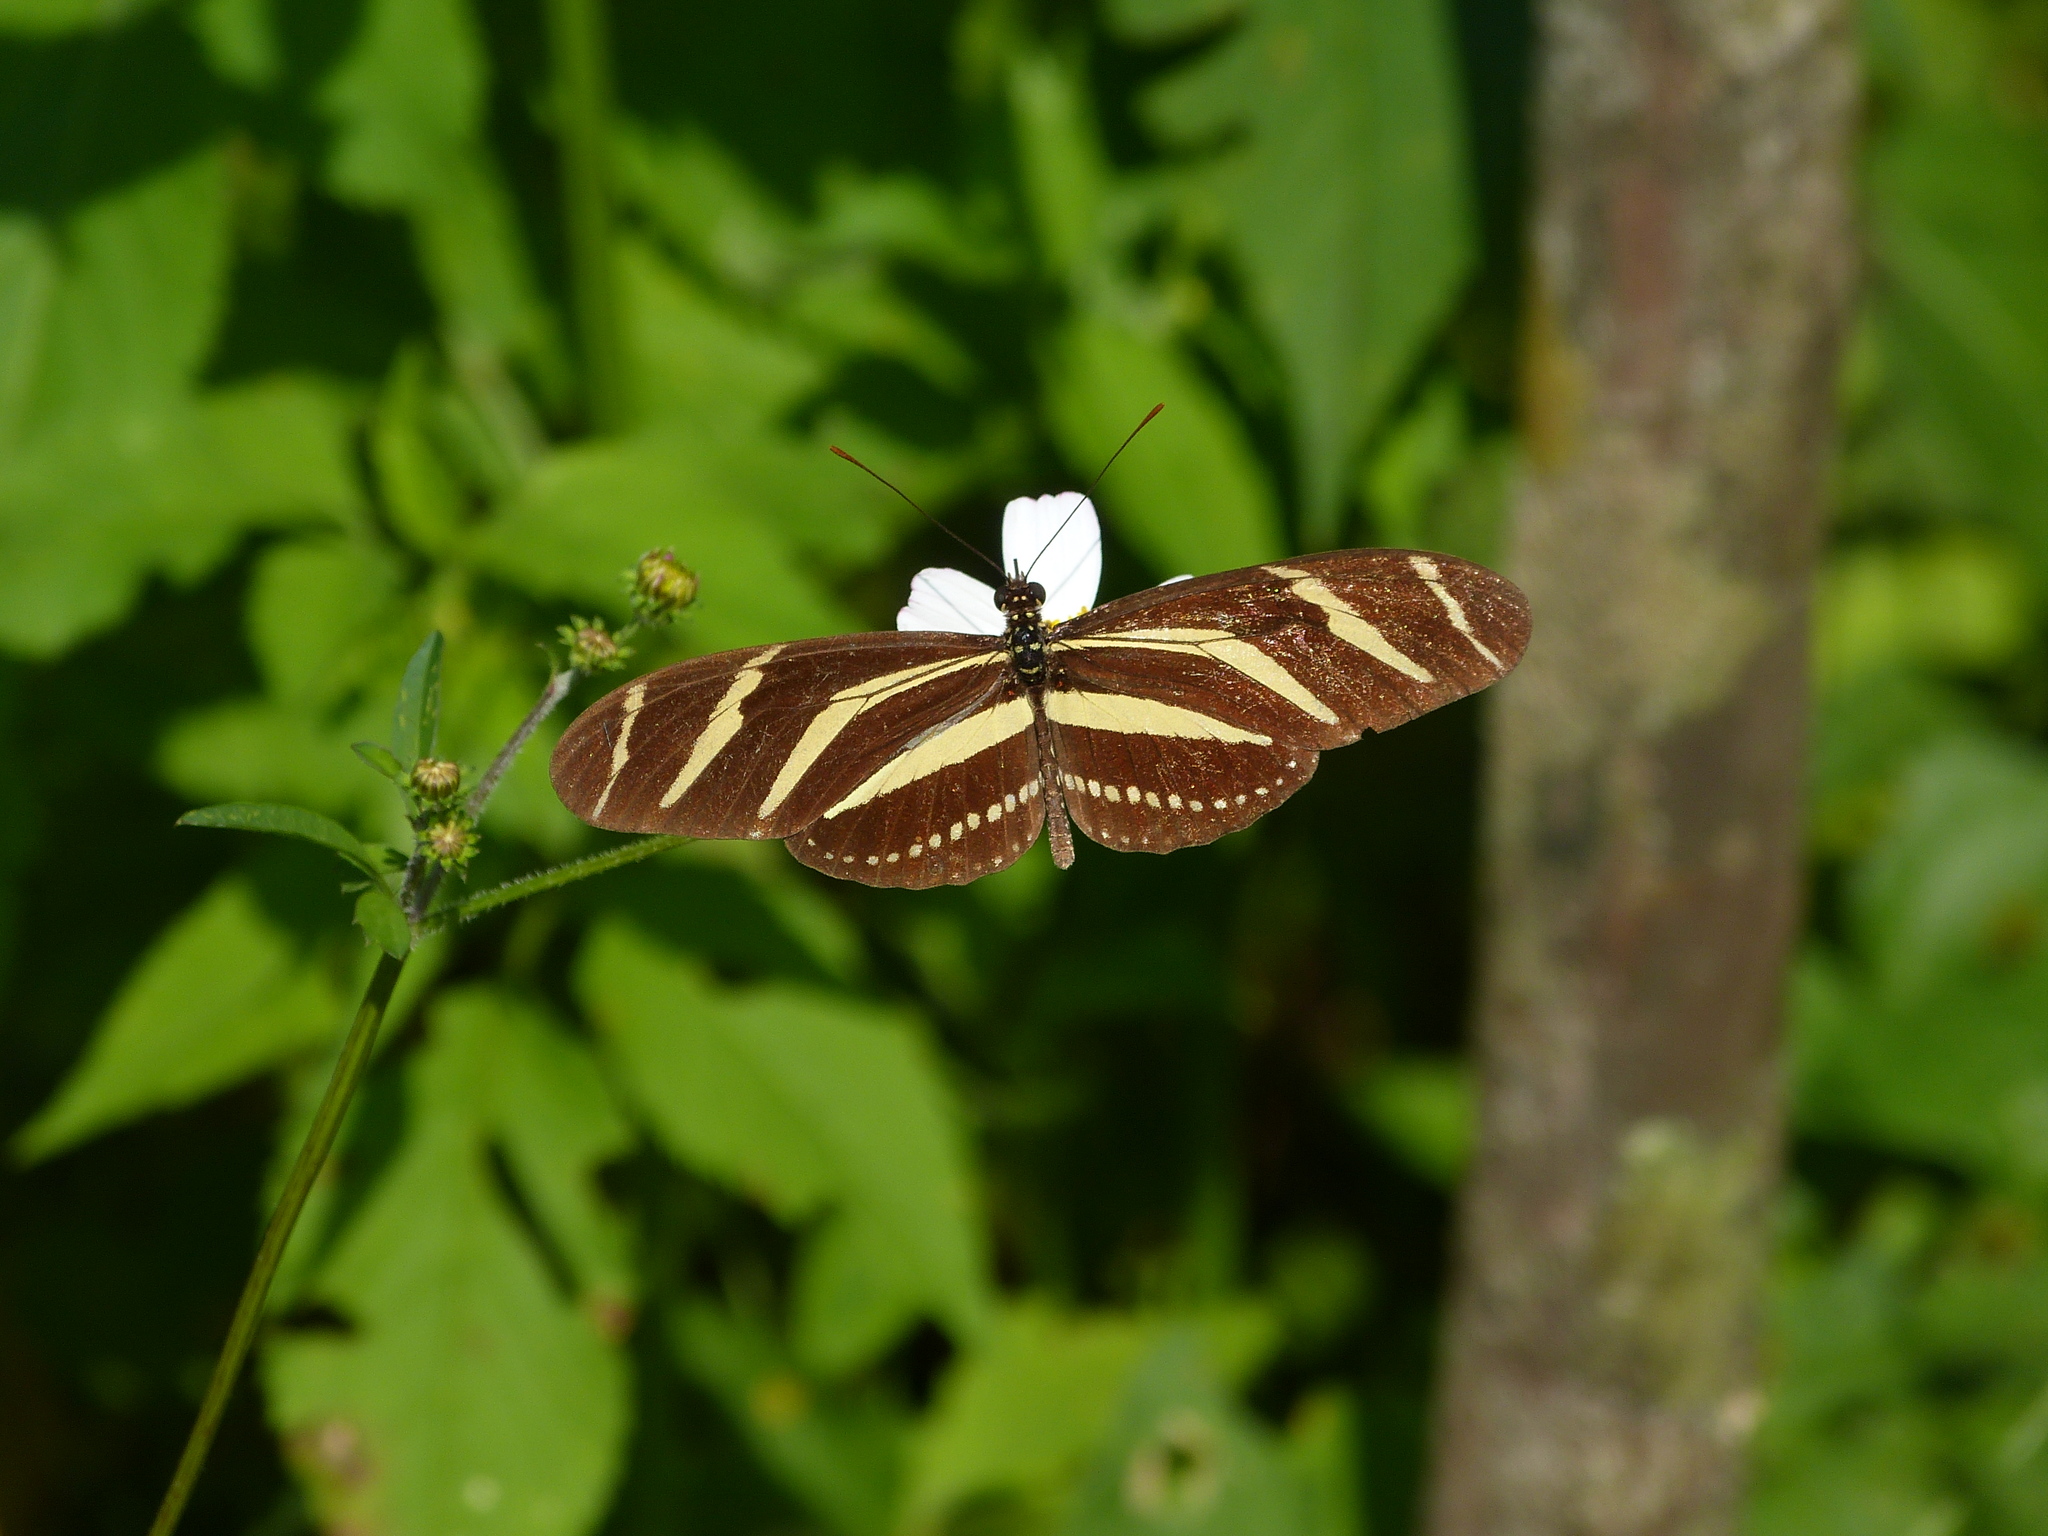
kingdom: Animalia
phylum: Arthropoda
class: Insecta
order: Lepidoptera
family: Nymphalidae
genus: Heliconius
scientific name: Heliconius charithonia
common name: Zebra long wing
